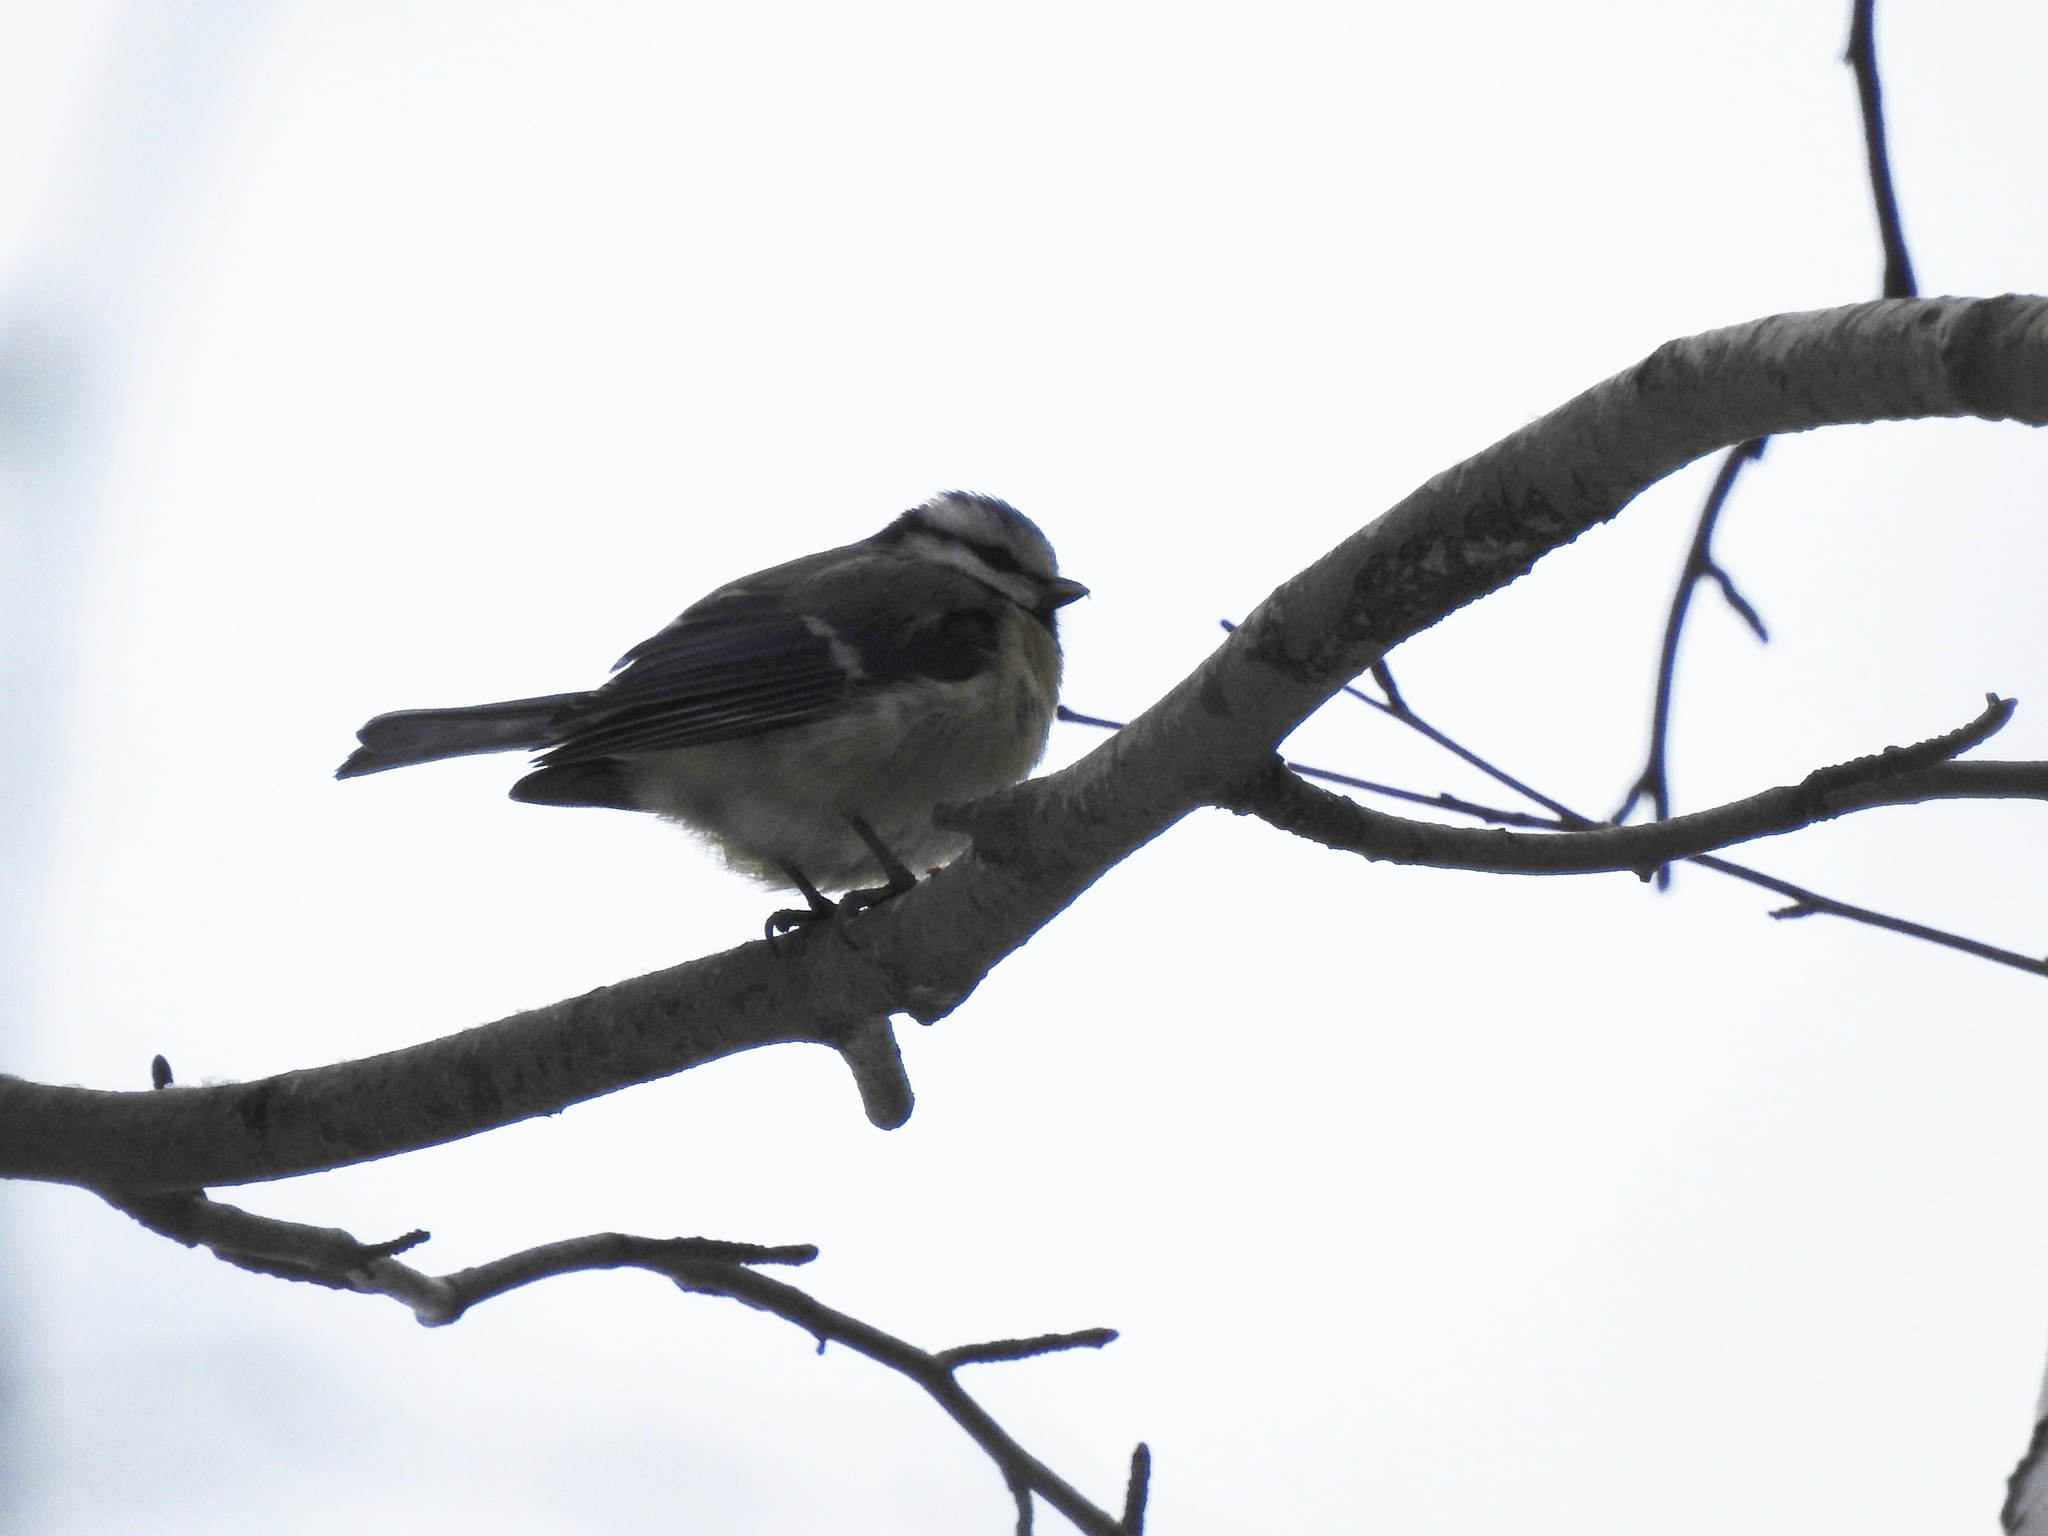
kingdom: Animalia
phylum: Chordata
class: Aves
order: Passeriformes
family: Paridae
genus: Cyanistes
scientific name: Cyanistes caeruleus
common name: Eurasian blue tit
